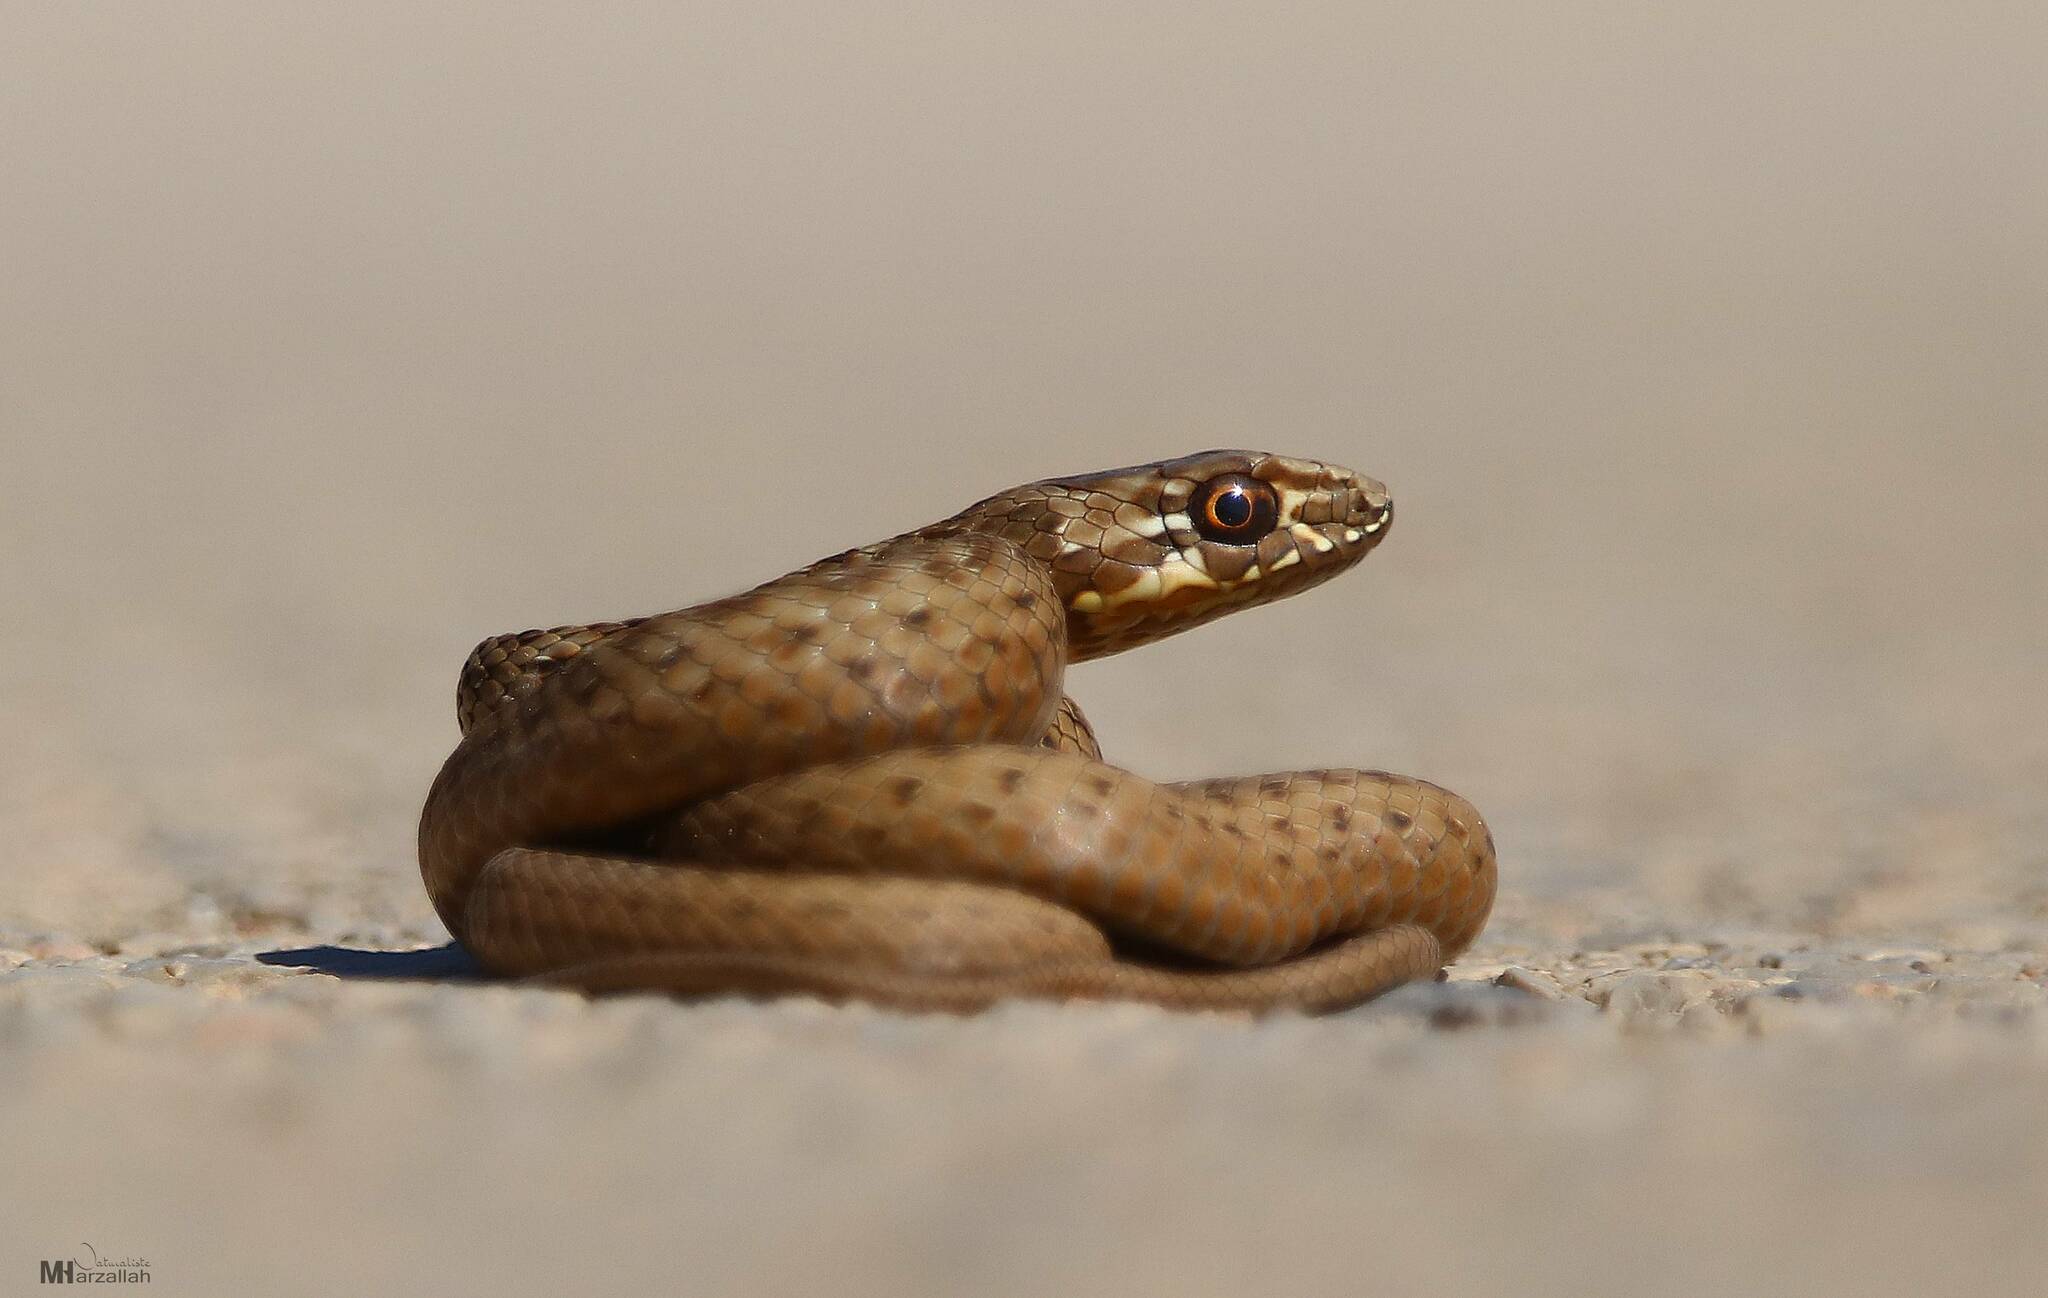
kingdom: Animalia
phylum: Chordata
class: Squamata
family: Psammophiidae
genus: Malpolon
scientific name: Malpolon insignitus
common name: Eastern montpellier snake
